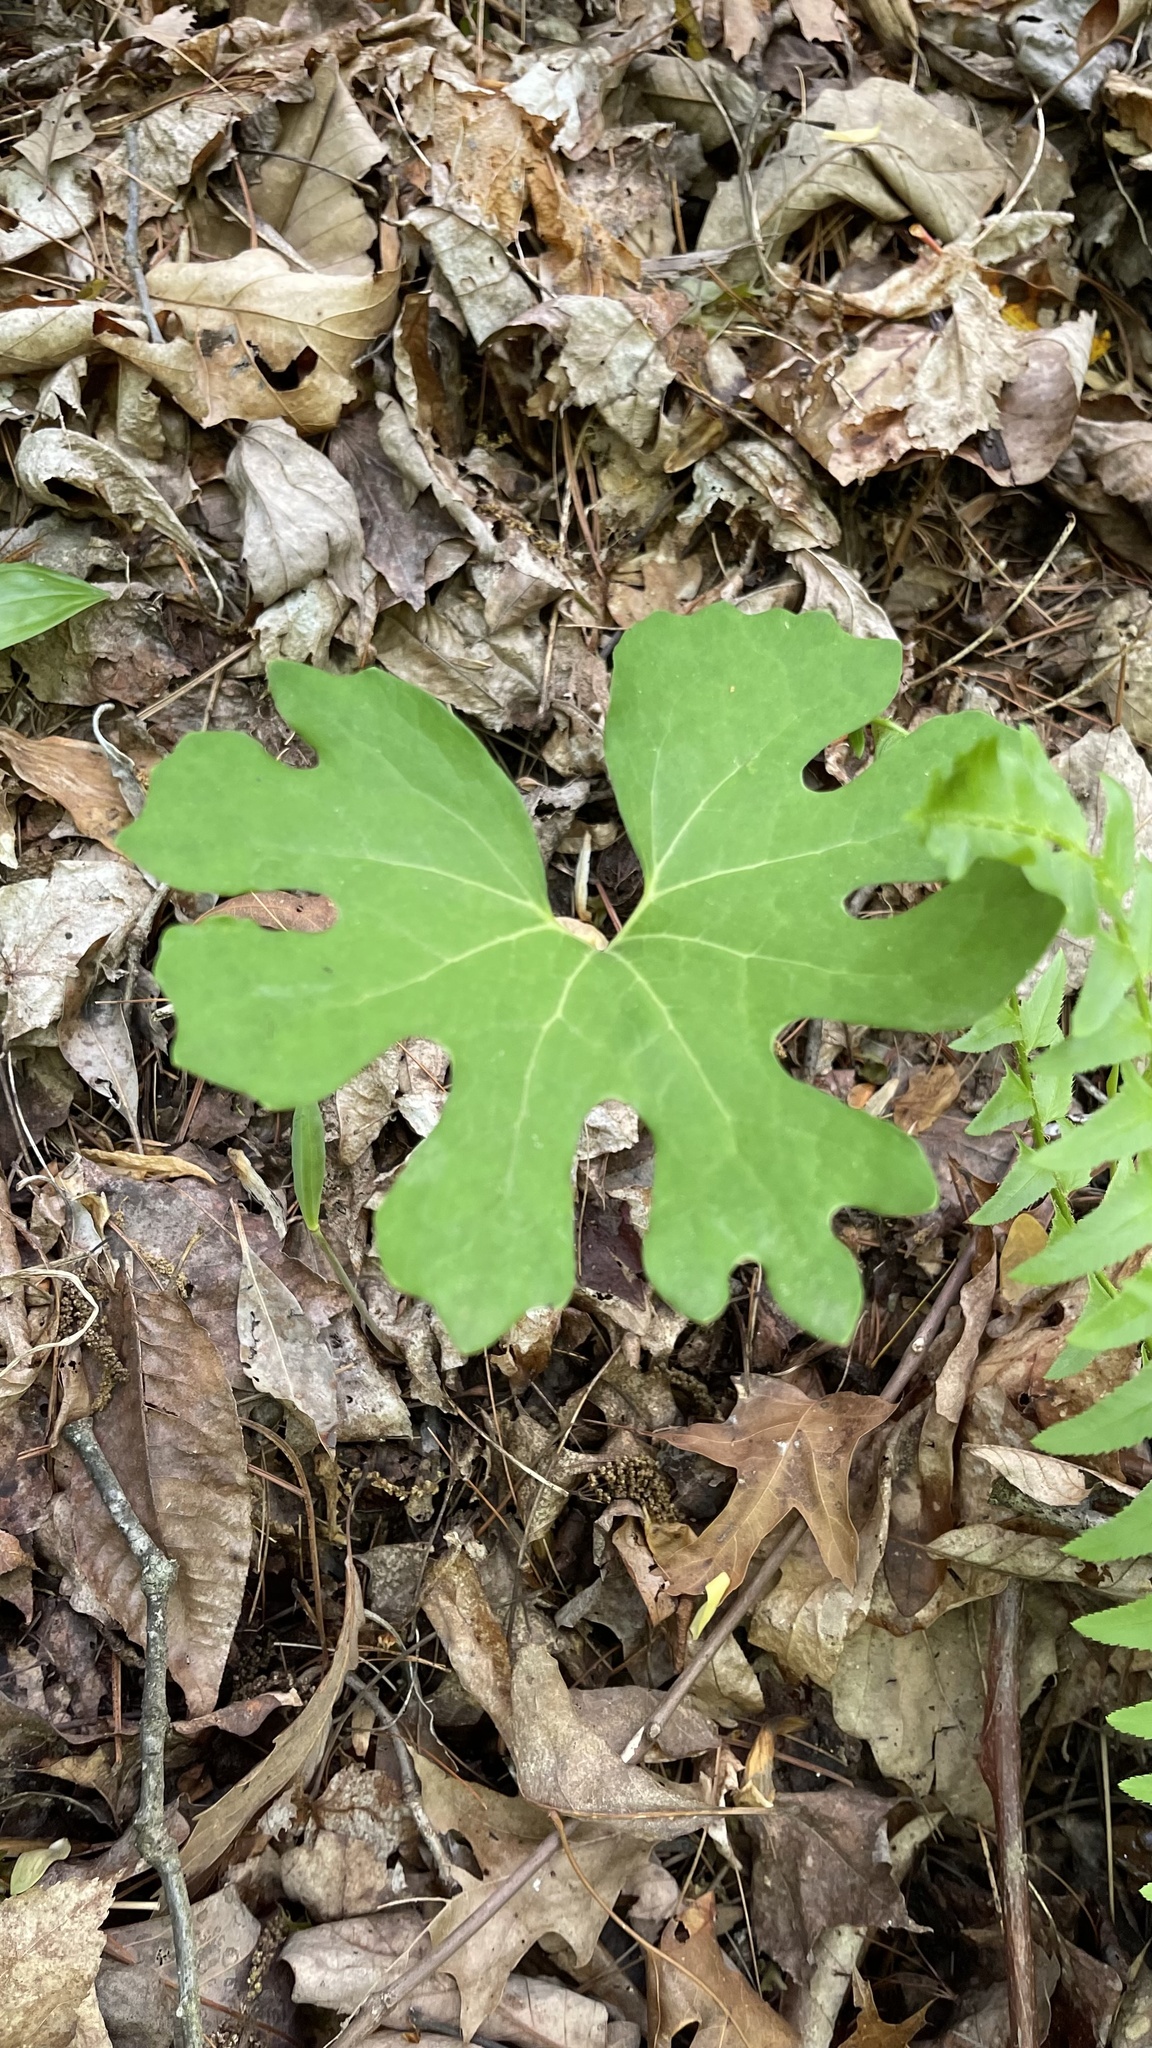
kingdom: Plantae
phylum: Tracheophyta
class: Magnoliopsida
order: Ranunculales
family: Papaveraceae
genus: Sanguinaria
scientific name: Sanguinaria canadensis
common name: Bloodroot
